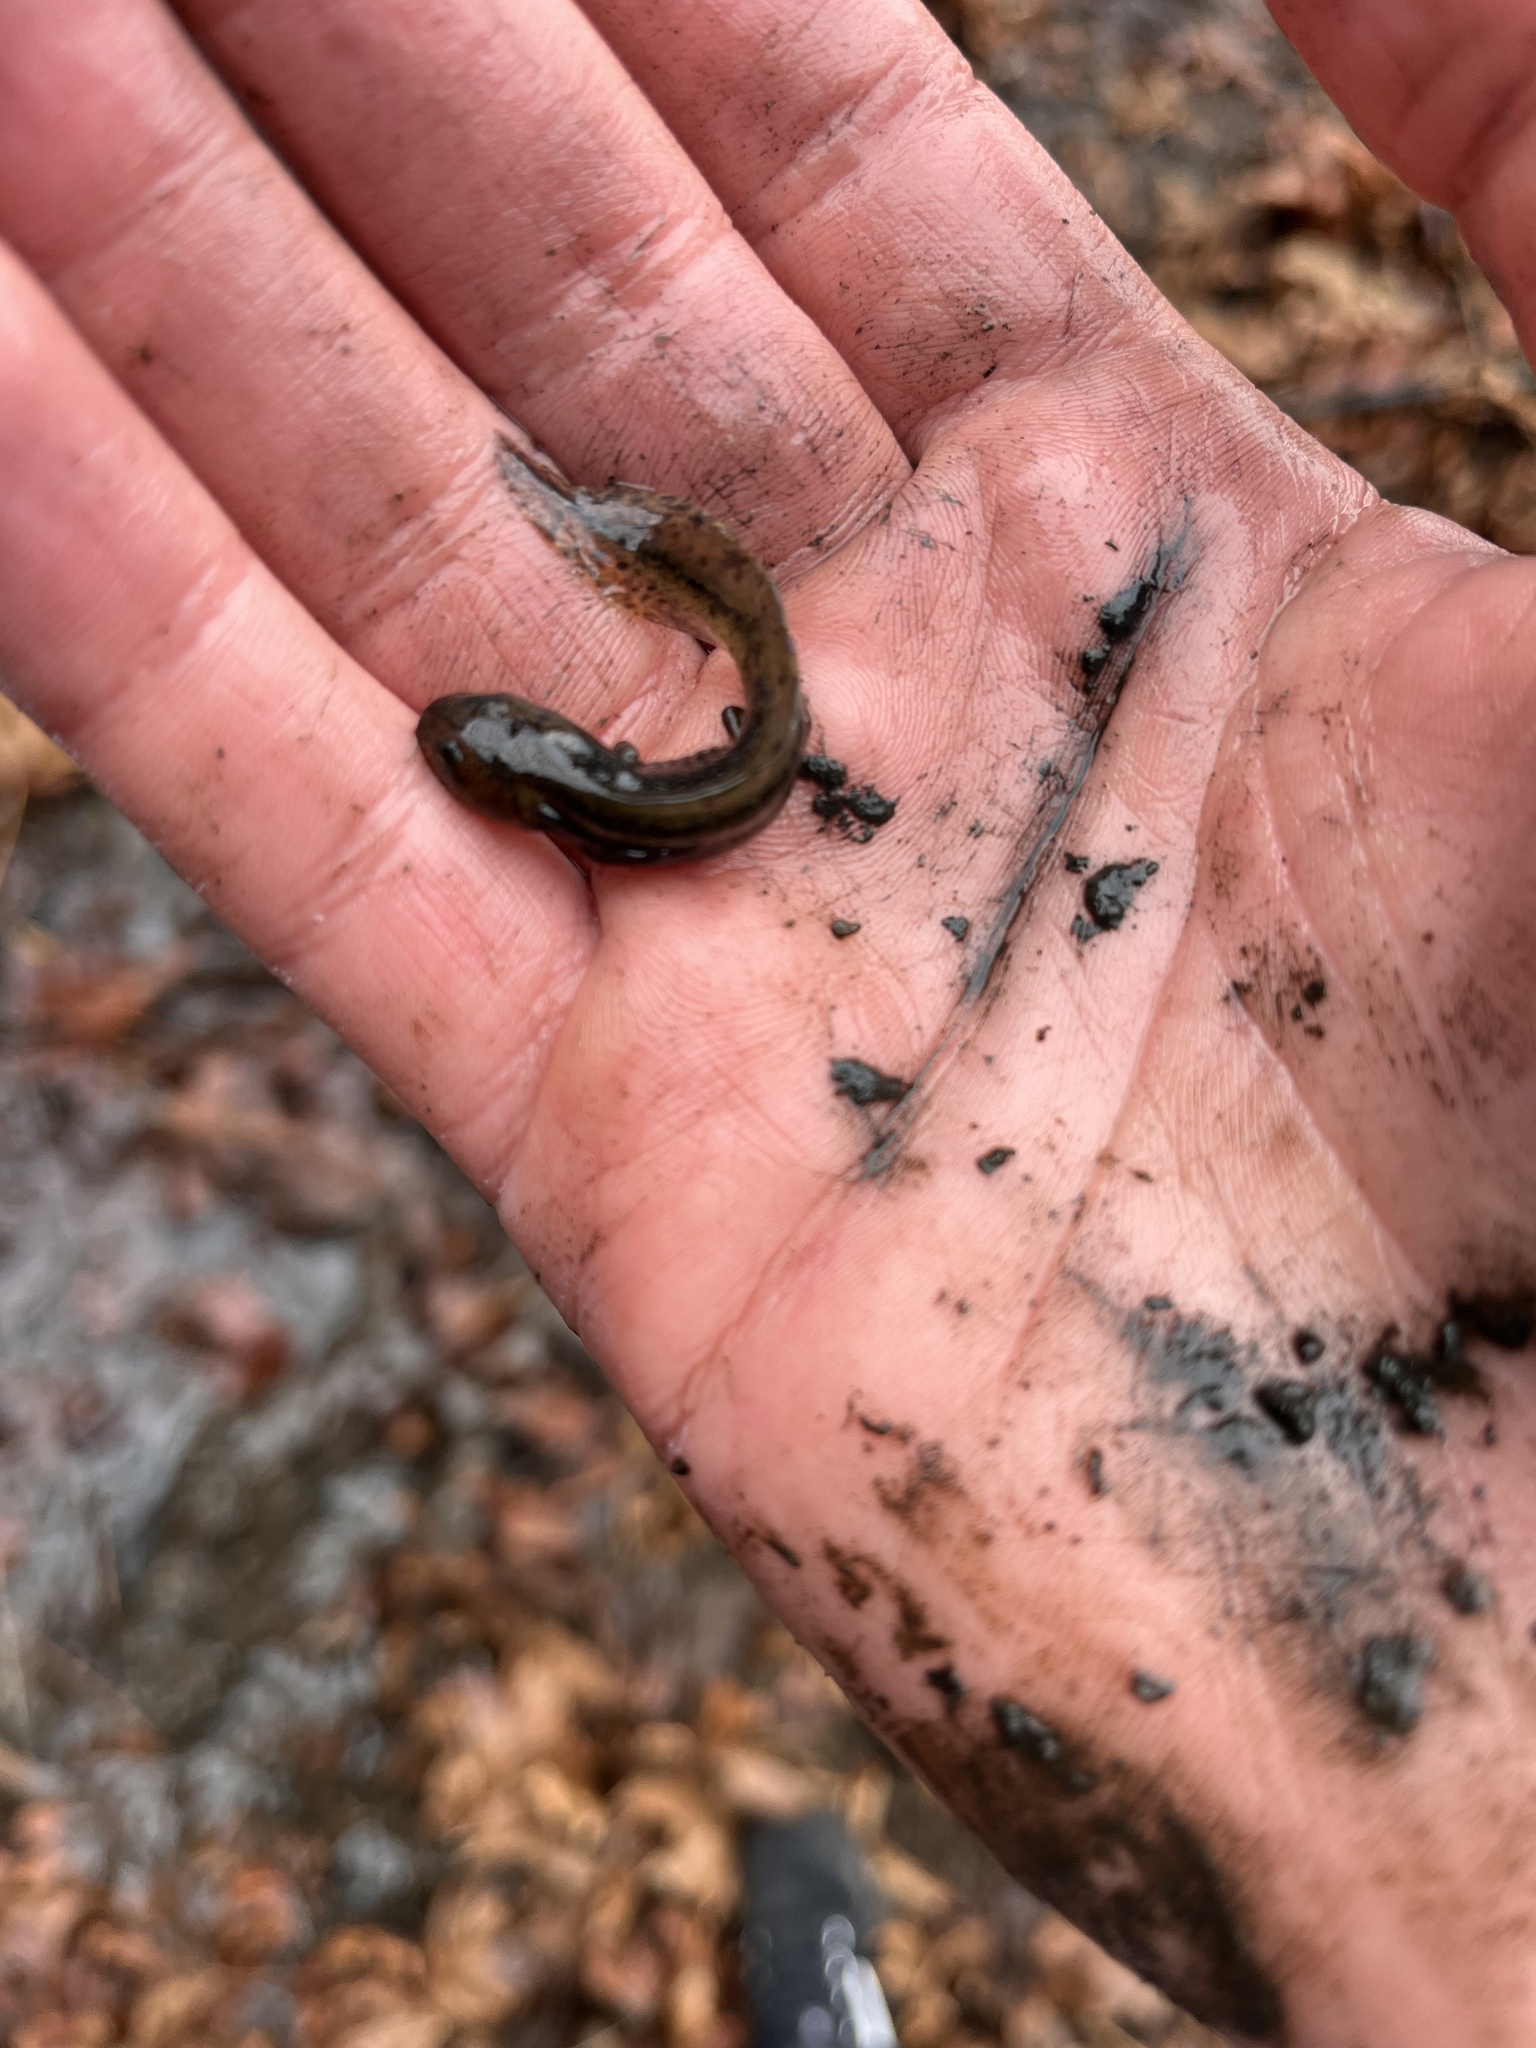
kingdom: Animalia
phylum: Chordata
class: Amphibia
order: Caudata
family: Salamandridae
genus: Taricha
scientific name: Taricha torosa
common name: California newt
